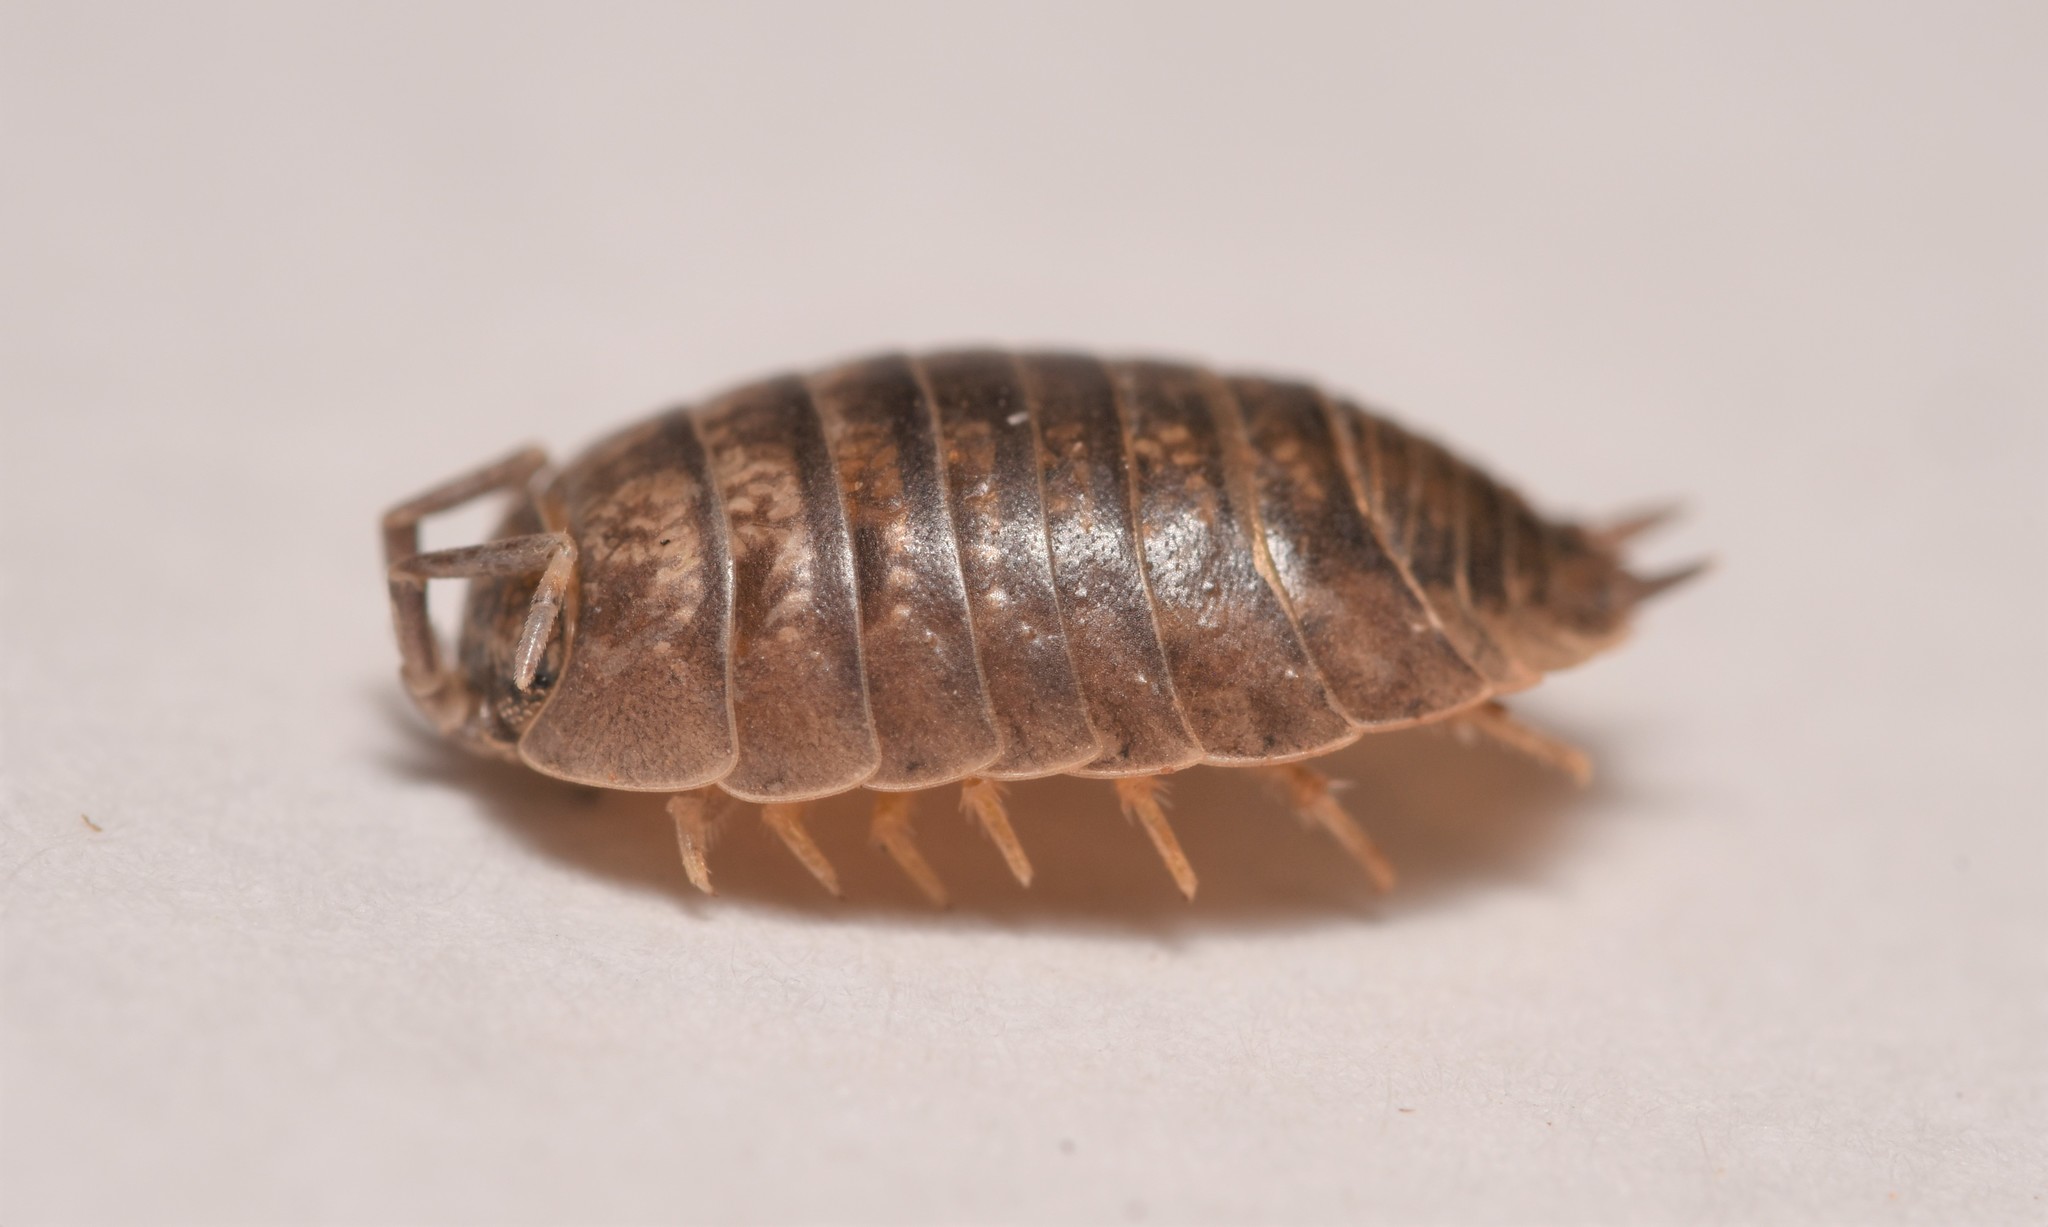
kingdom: Animalia
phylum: Arthropoda
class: Malacostraca
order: Isopoda
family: Porcellionidae
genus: Porcellio
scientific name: Porcellio laevis
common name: Swift woodlouse
